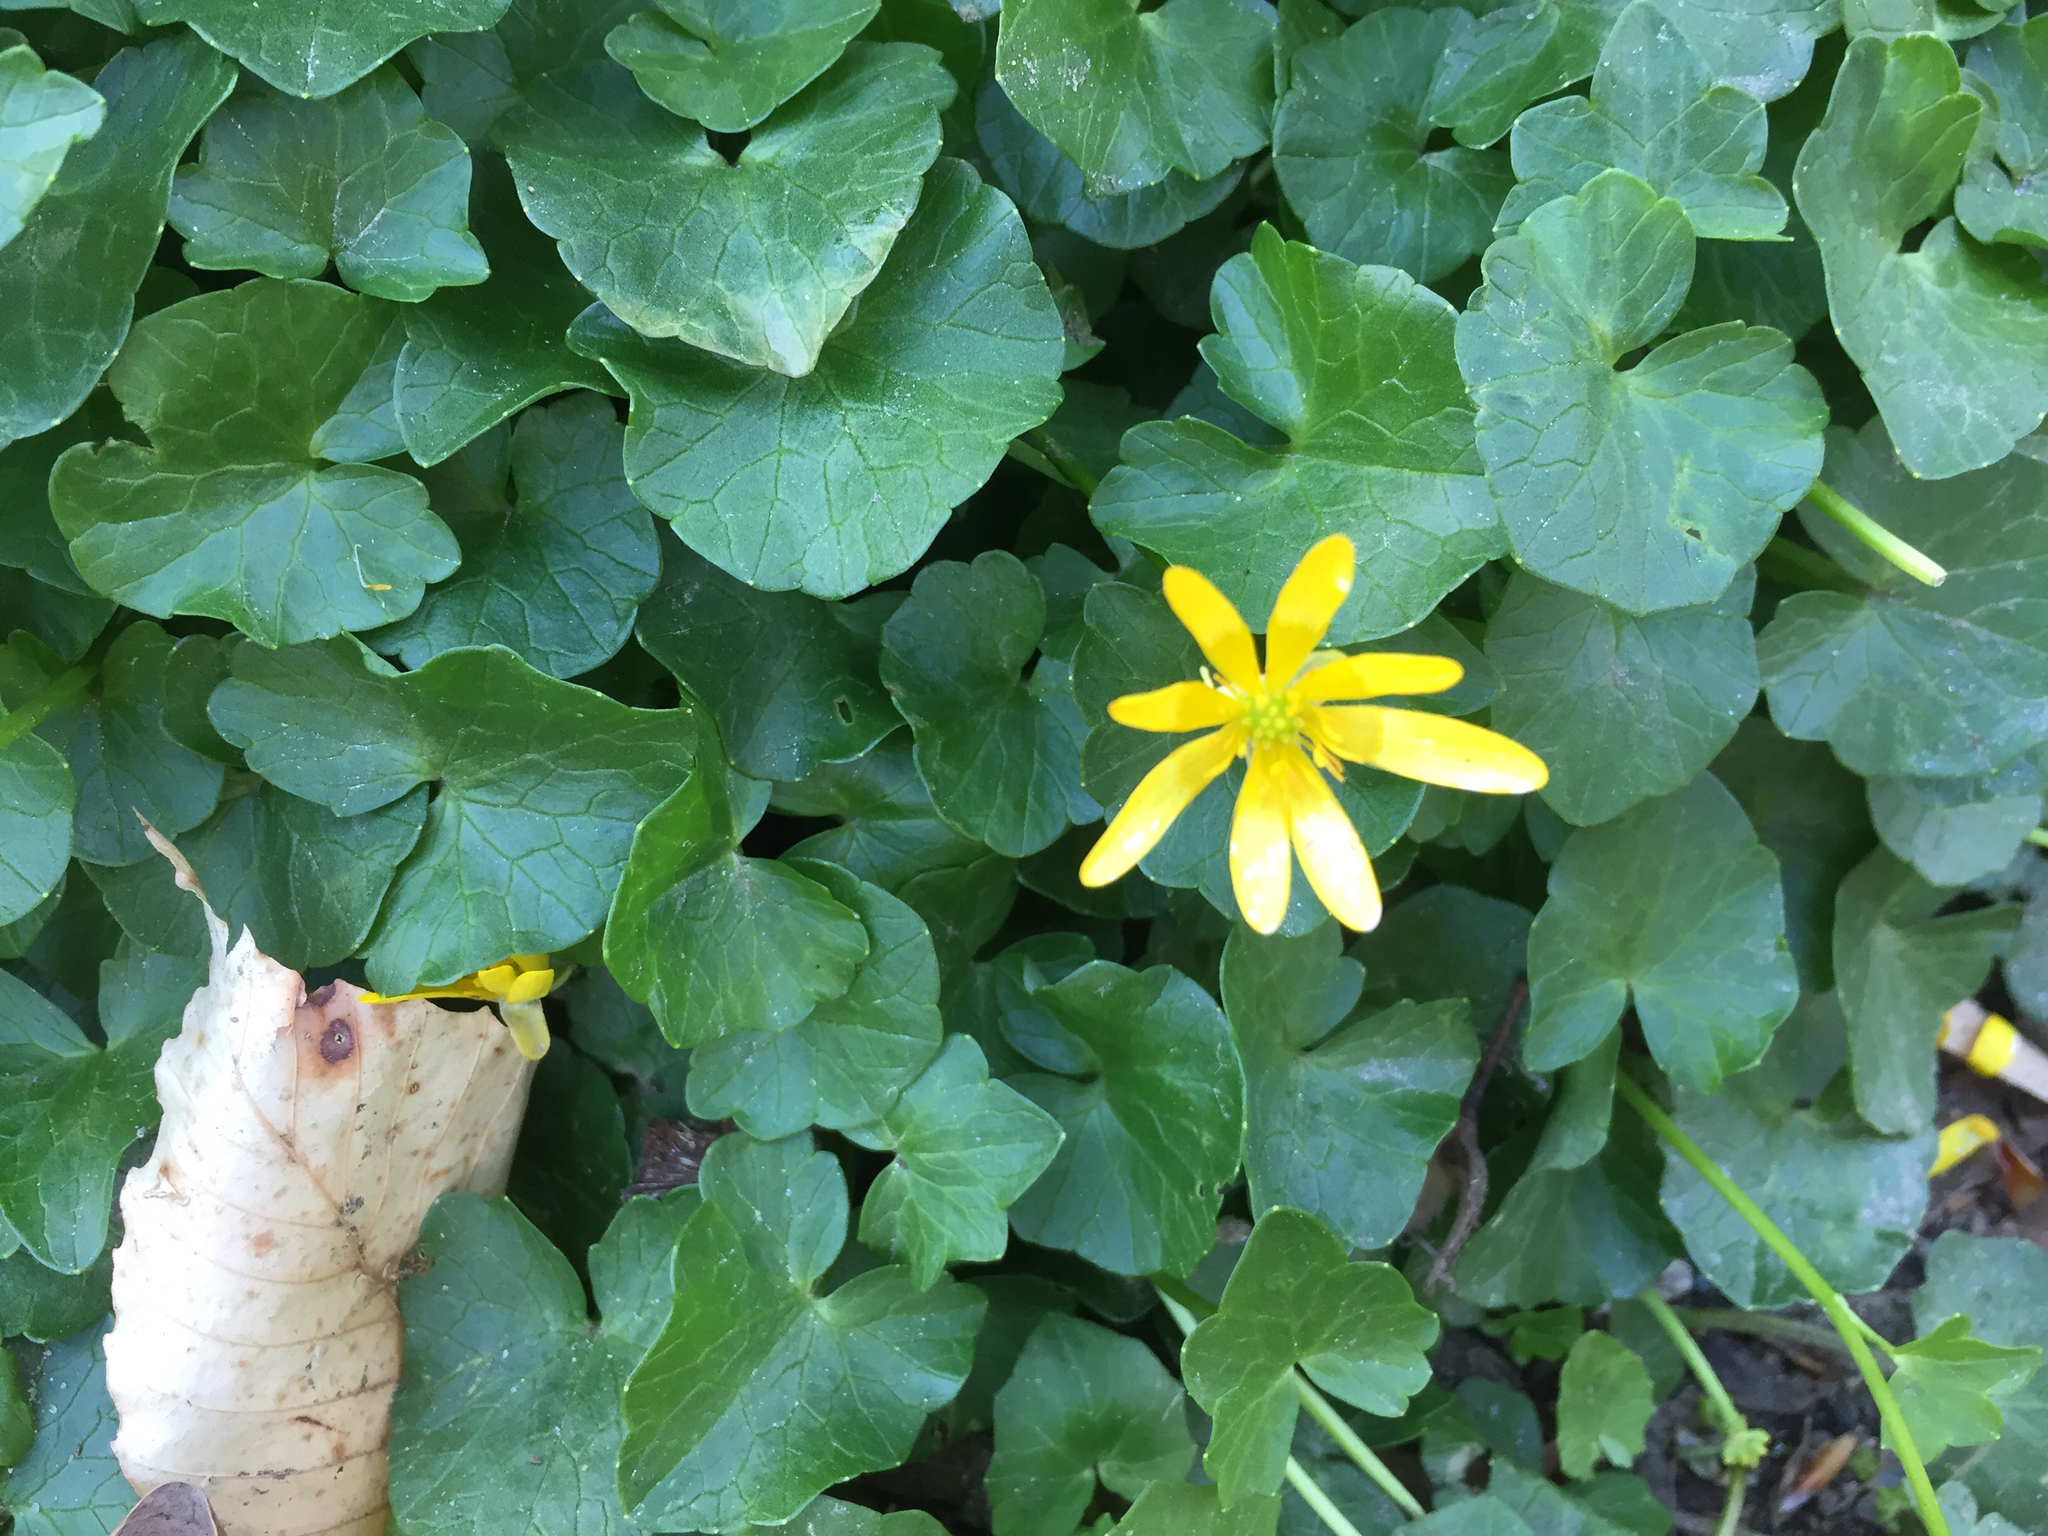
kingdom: Plantae
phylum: Tracheophyta
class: Magnoliopsida
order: Ranunculales
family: Ranunculaceae
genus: Ficaria
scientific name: Ficaria verna
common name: Lesser celandine
